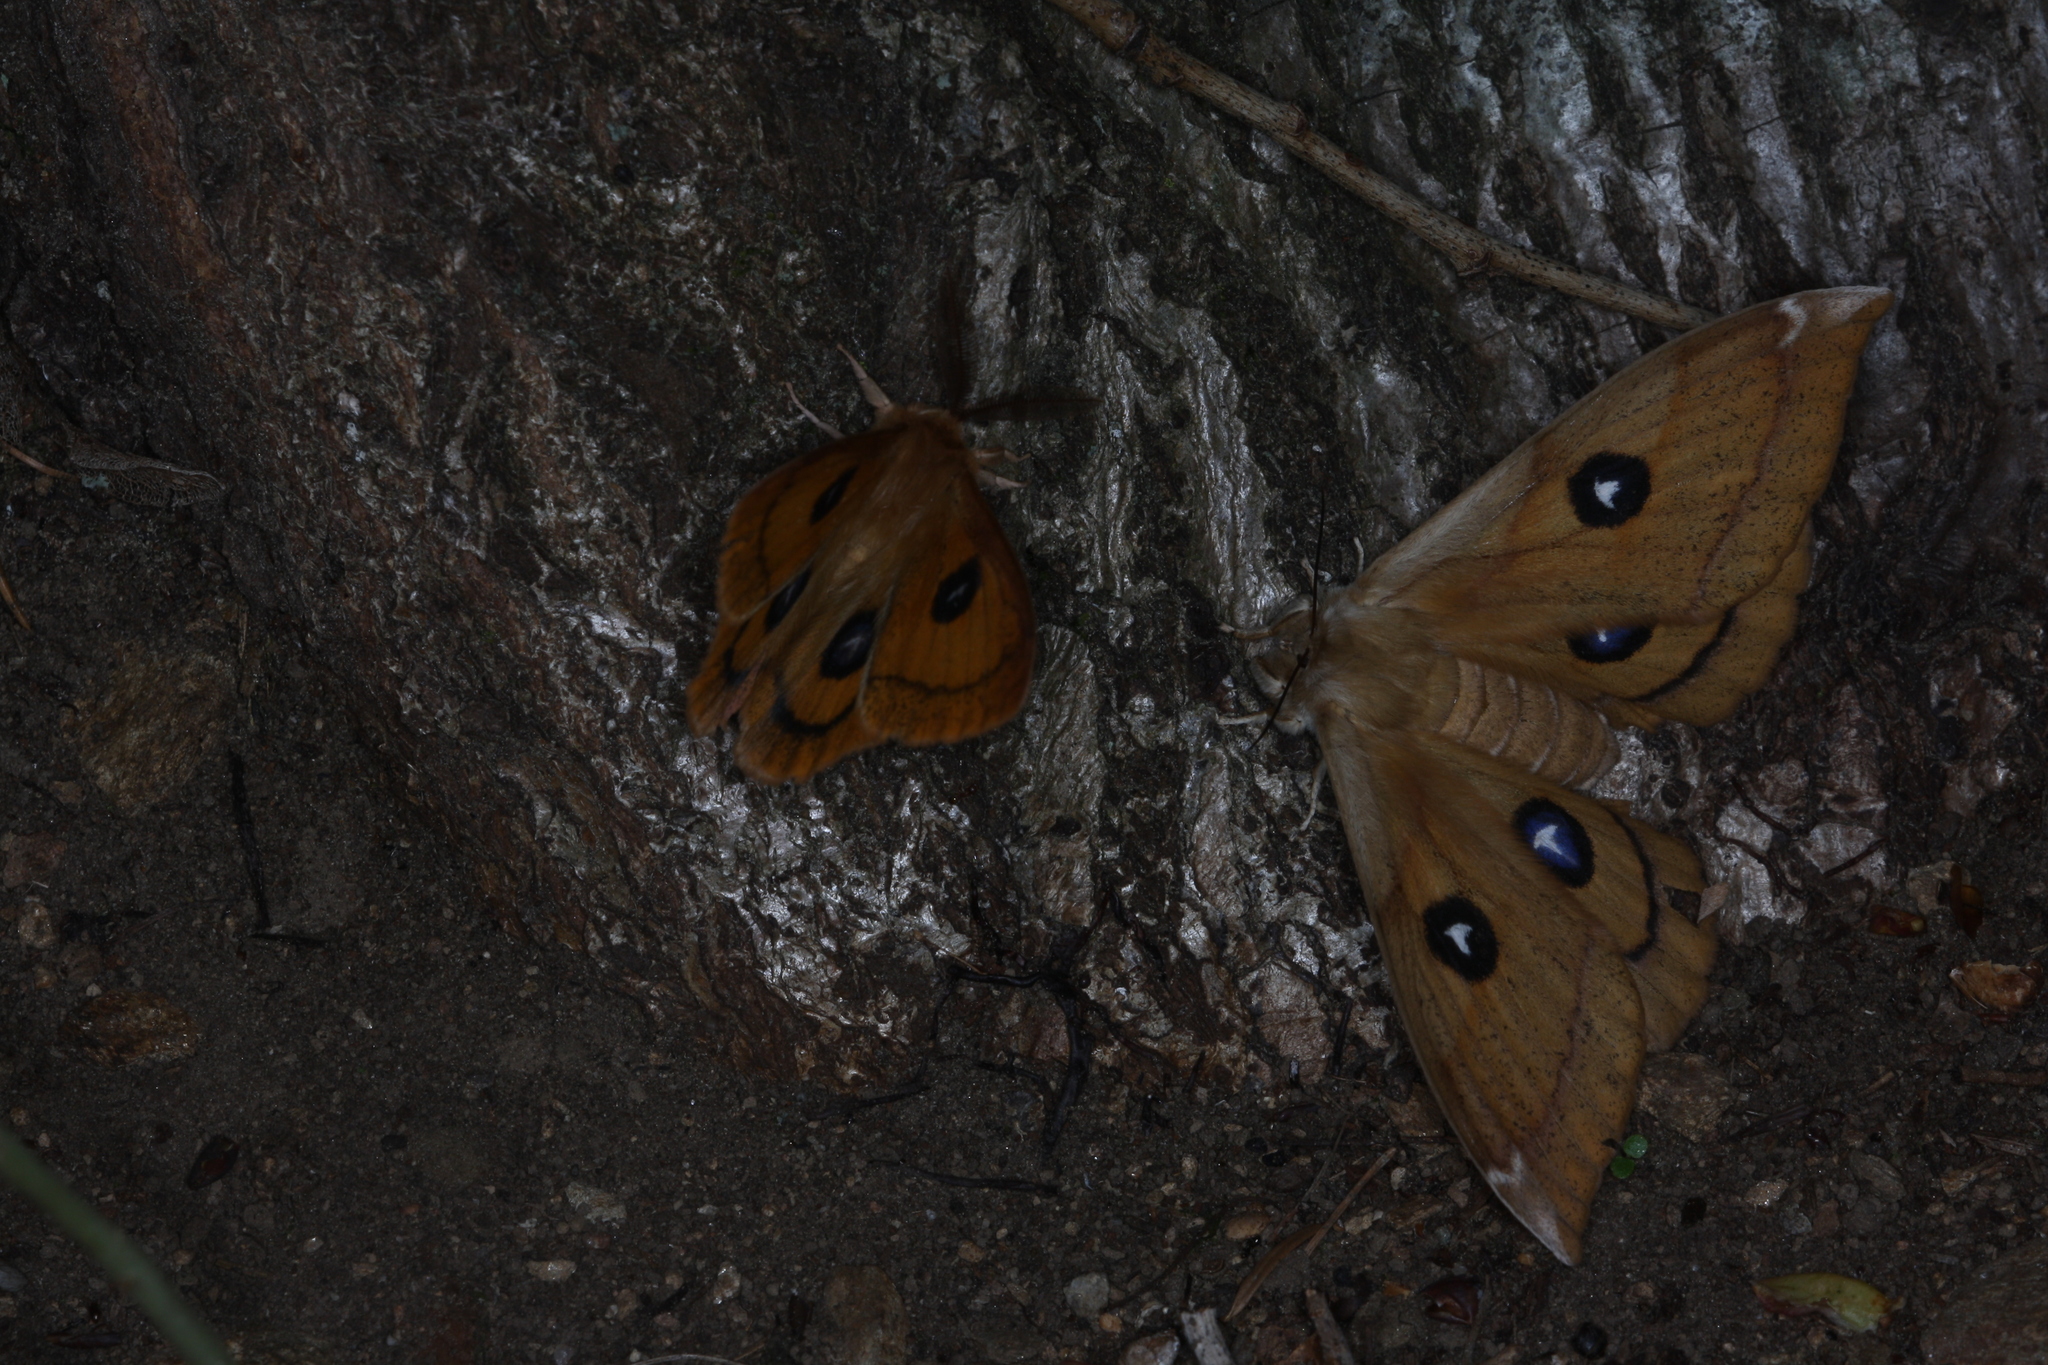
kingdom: Animalia
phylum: Arthropoda
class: Insecta
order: Lepidoptera
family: Saturniidae
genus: Aglia
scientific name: Aglia tau
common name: Tau emperor
